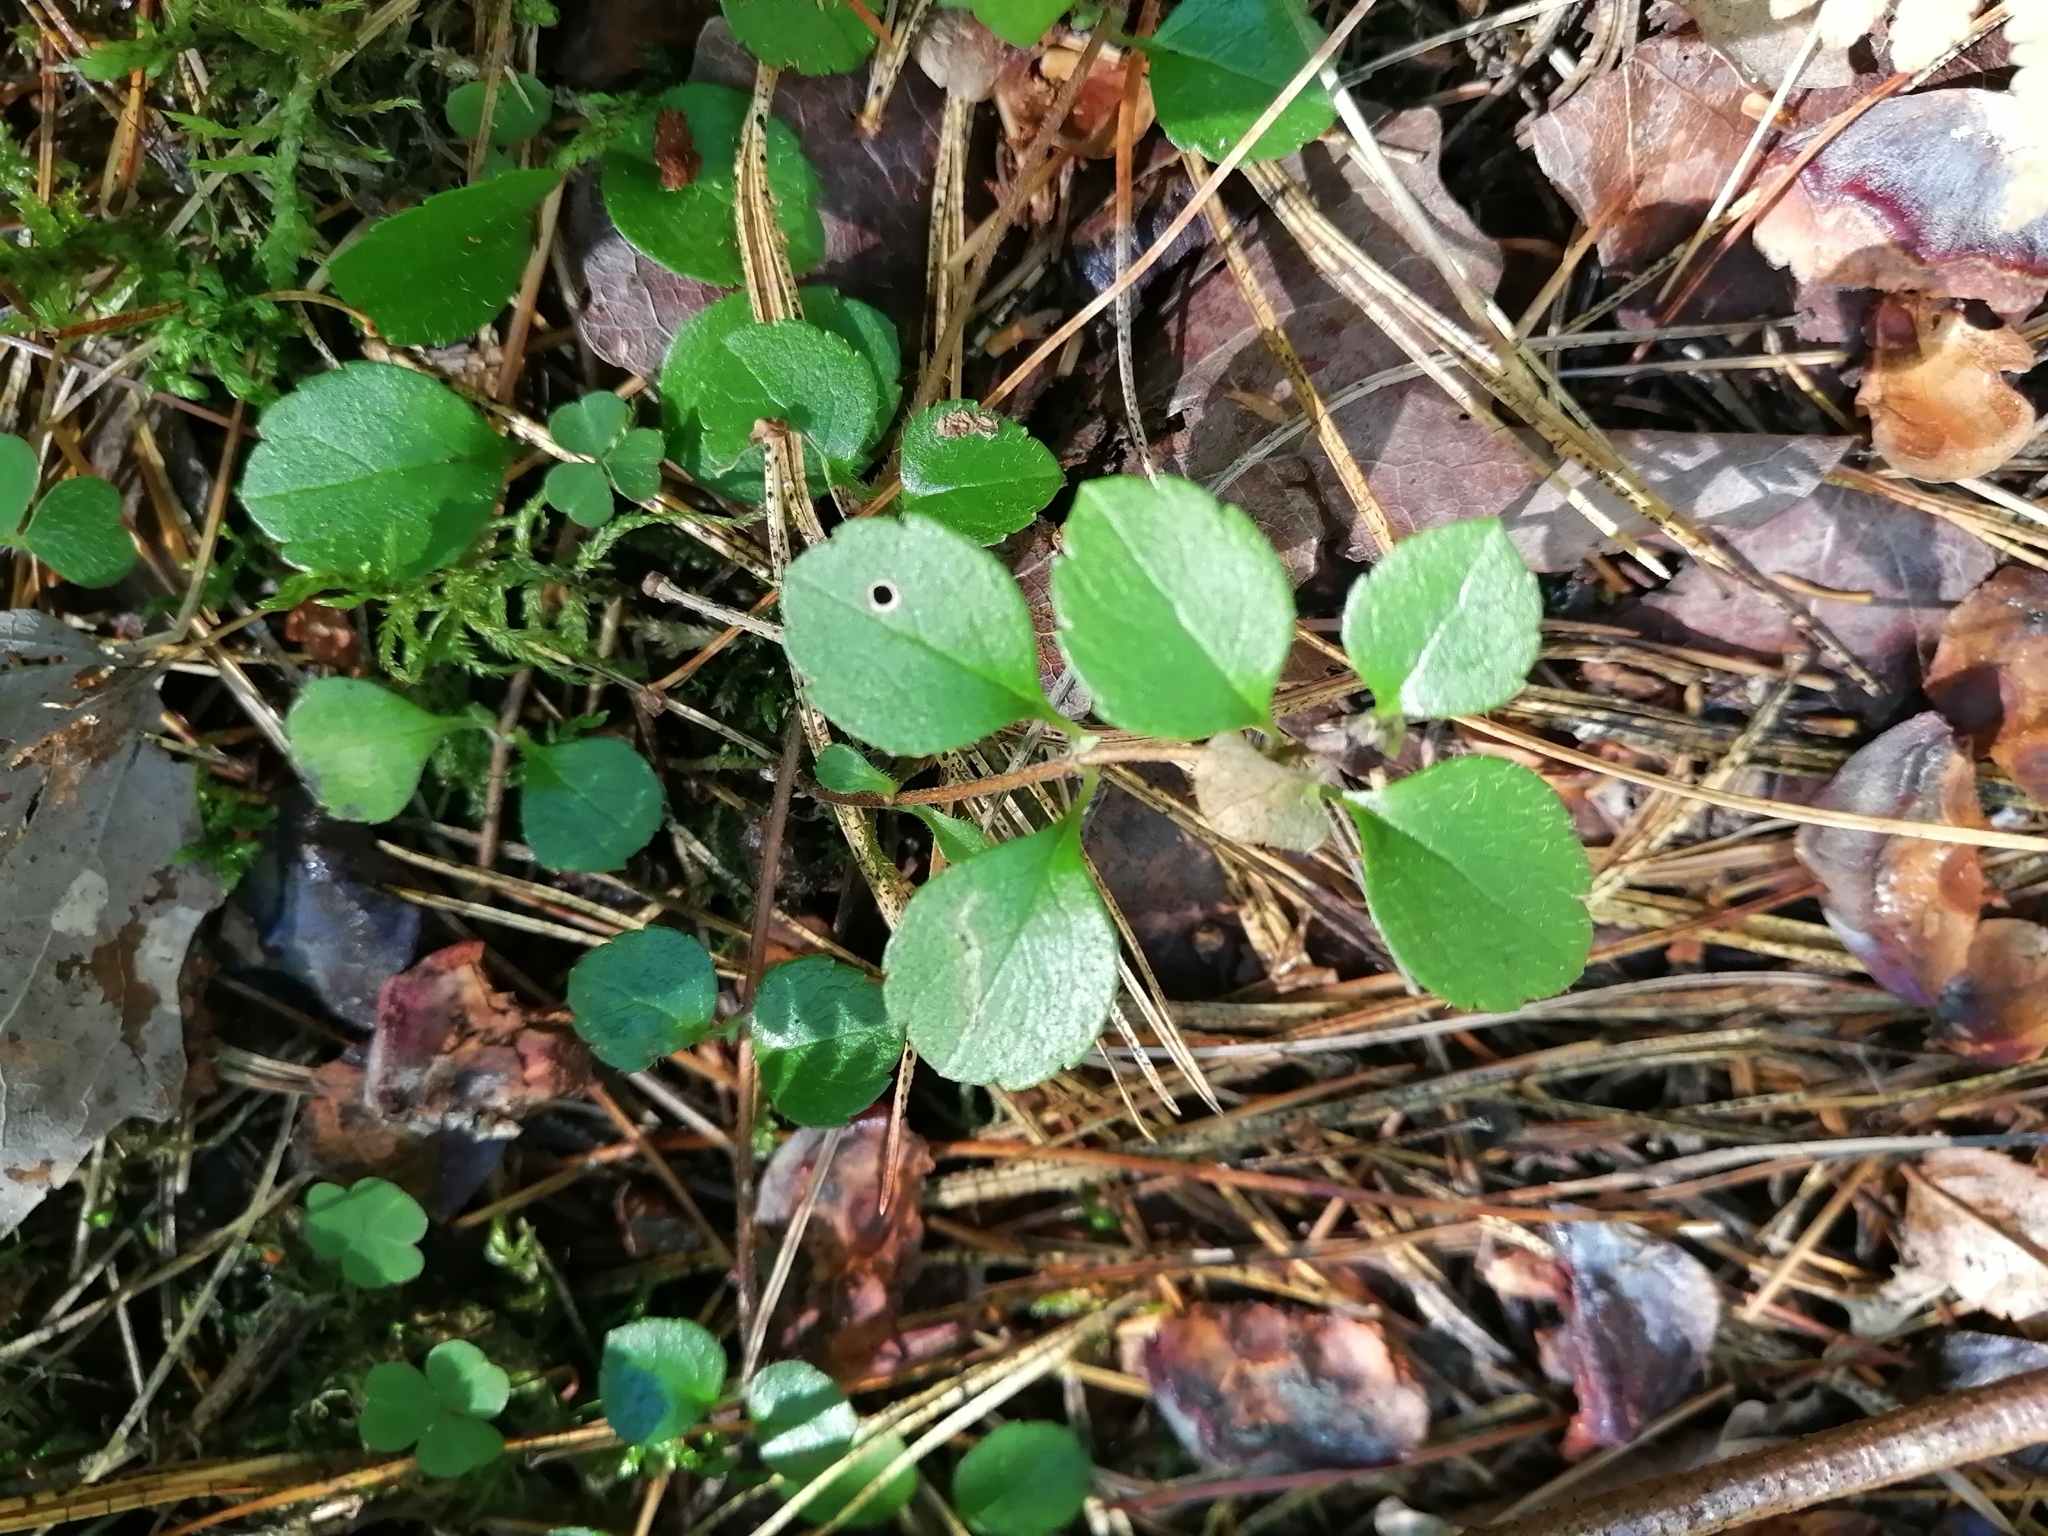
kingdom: Plantae
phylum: Tracheophyta
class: Magnoliopsida
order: Dipsacales
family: Caprifoliaceae
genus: Linnaea
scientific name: Linnaea borealis
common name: Twinflower
